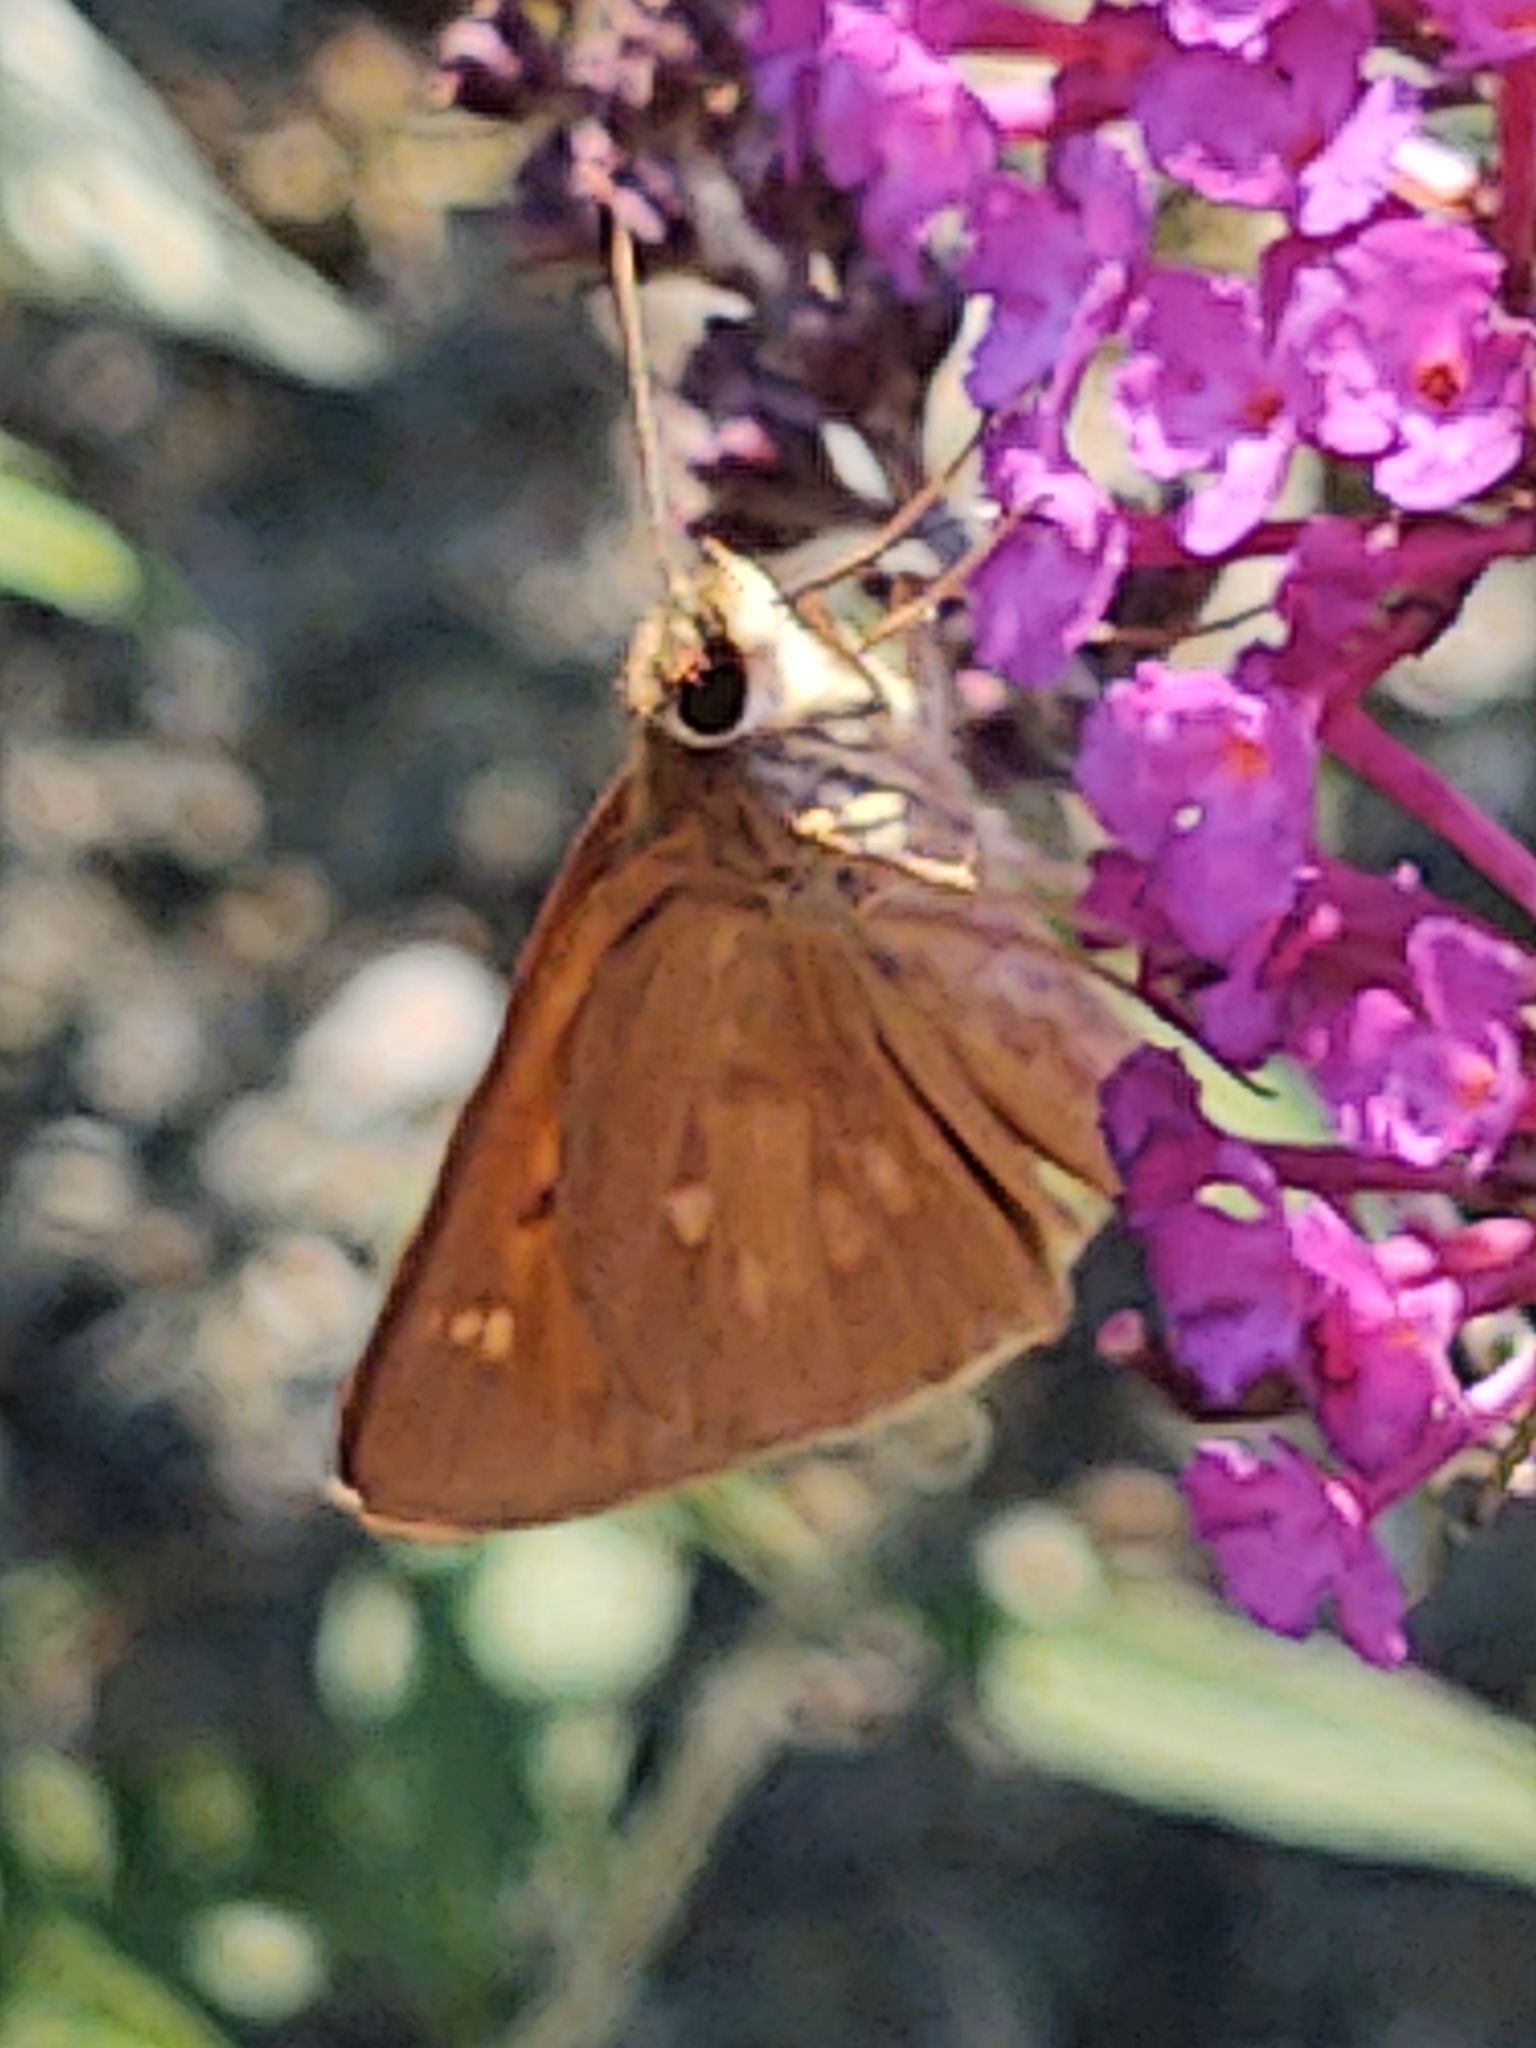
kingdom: Animalia
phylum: Arthropoda
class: Insecta
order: Lepidoptera
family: Hesperiidae
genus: Poanes
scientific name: Poanes viator
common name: Broad-winged skipper
